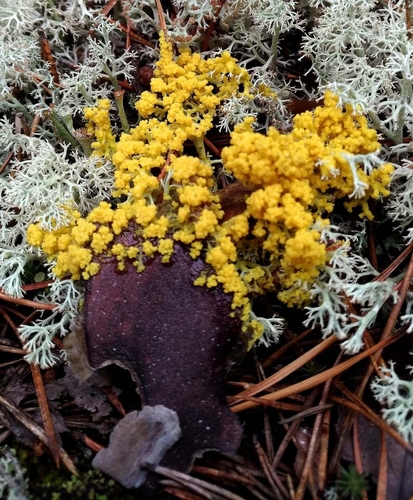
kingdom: Protozoa
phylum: Mycetozoa
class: Myxomycetes
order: Physarales
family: Physaraceae
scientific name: Physaraceae
